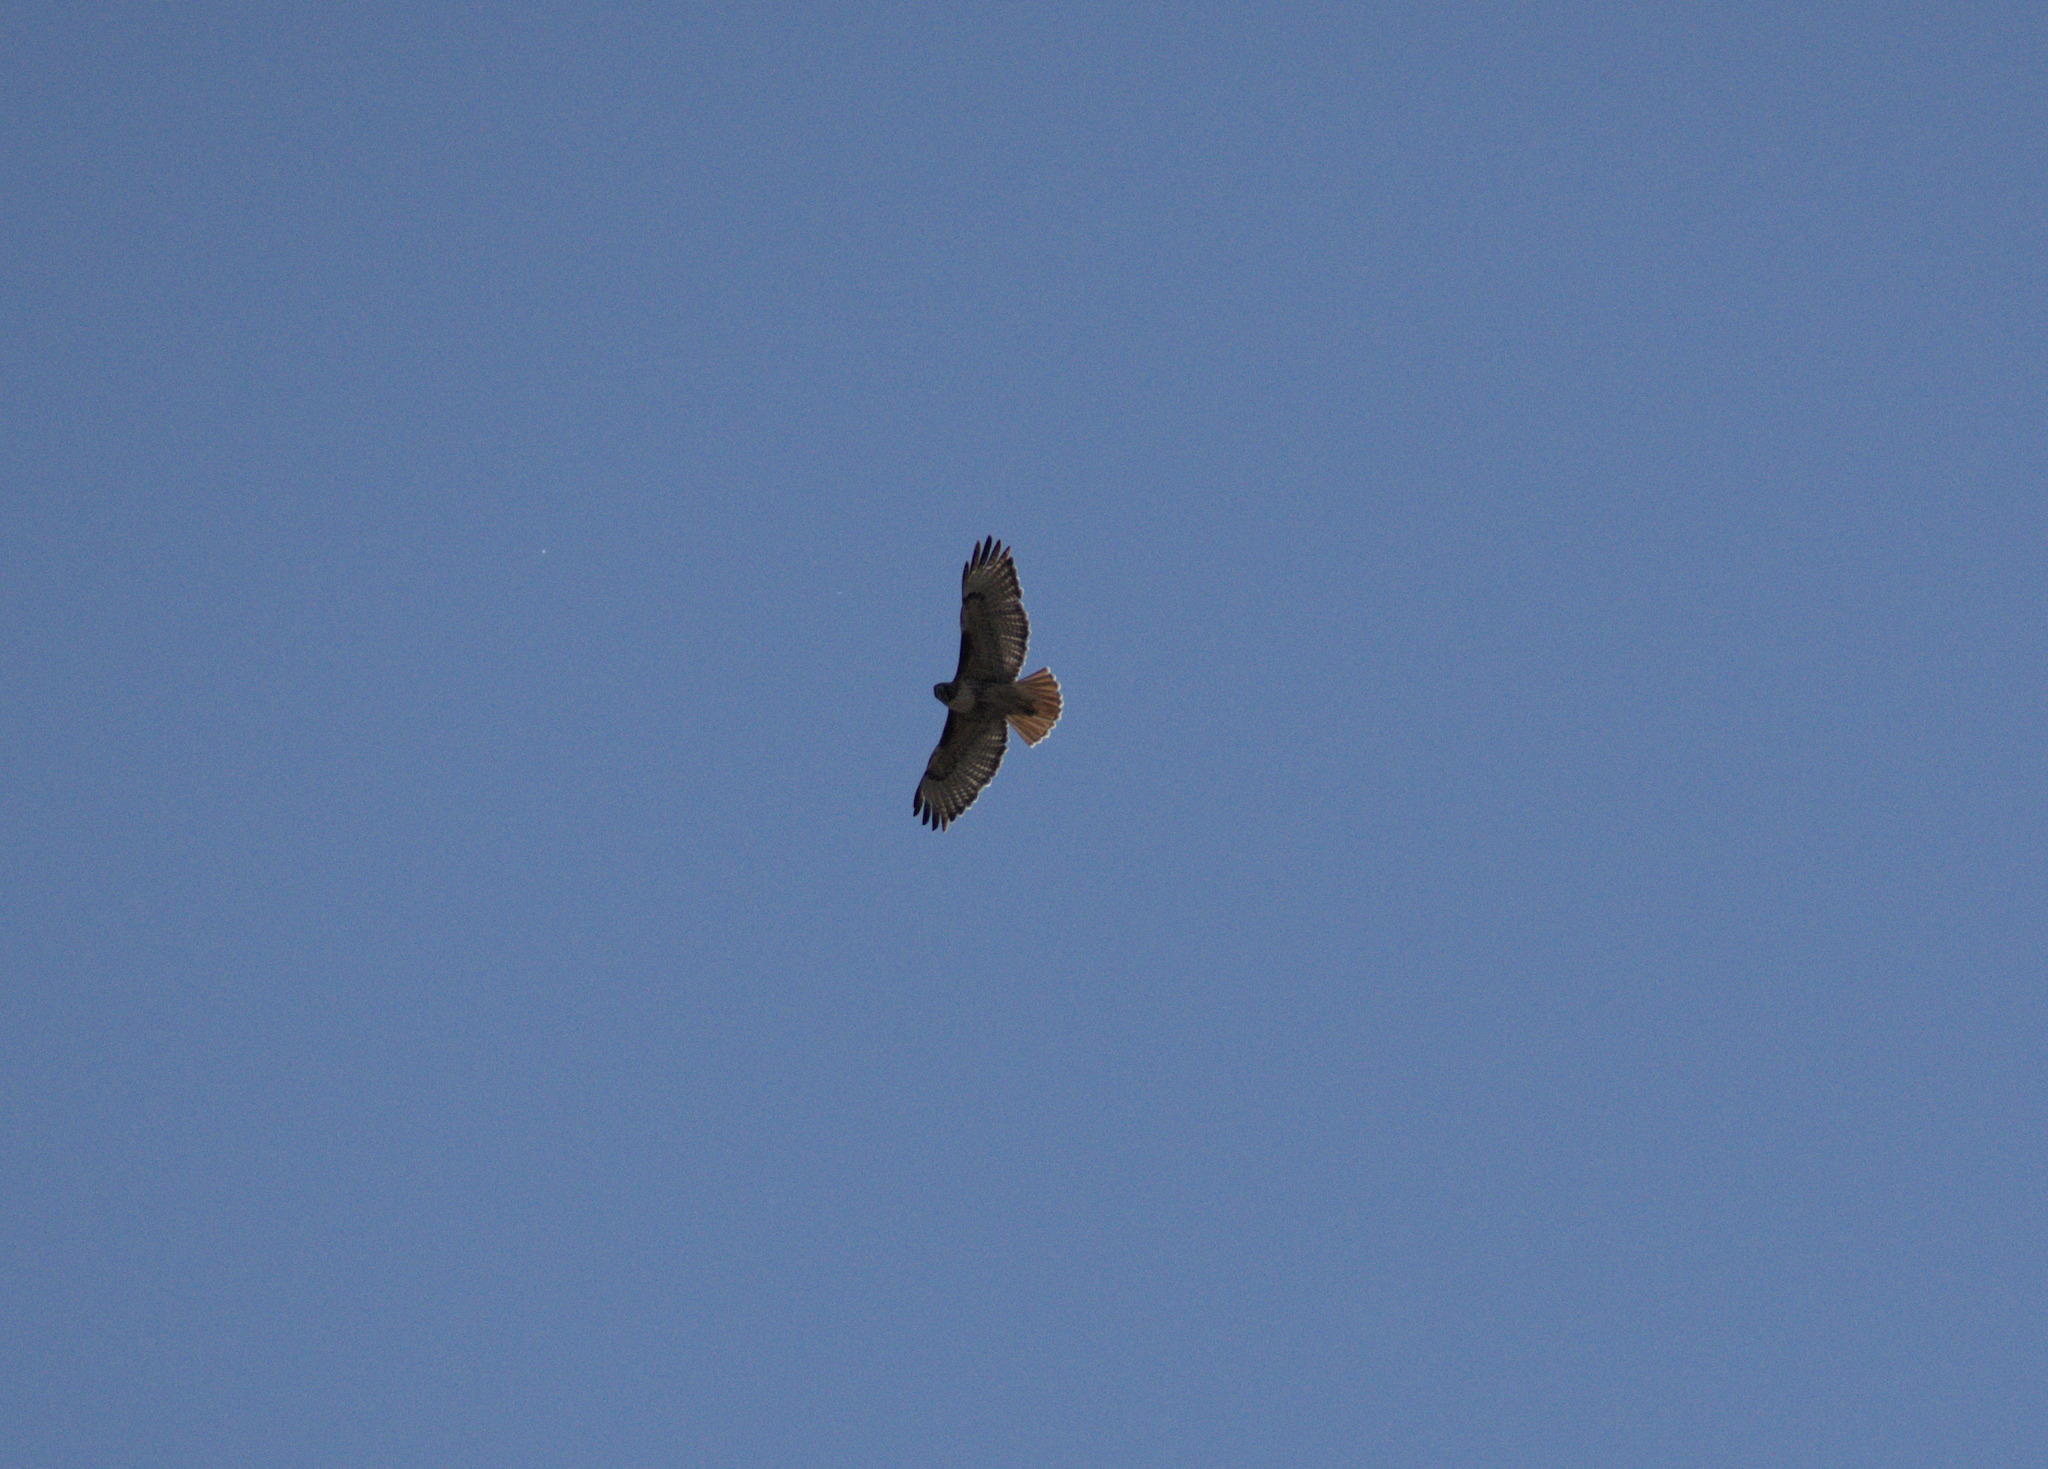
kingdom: Animalia
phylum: Chordata
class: Aves
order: Accipitriformes
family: Accipitridae
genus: Buteo
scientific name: Buteo jamaicensis
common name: Red-tailed hawk
